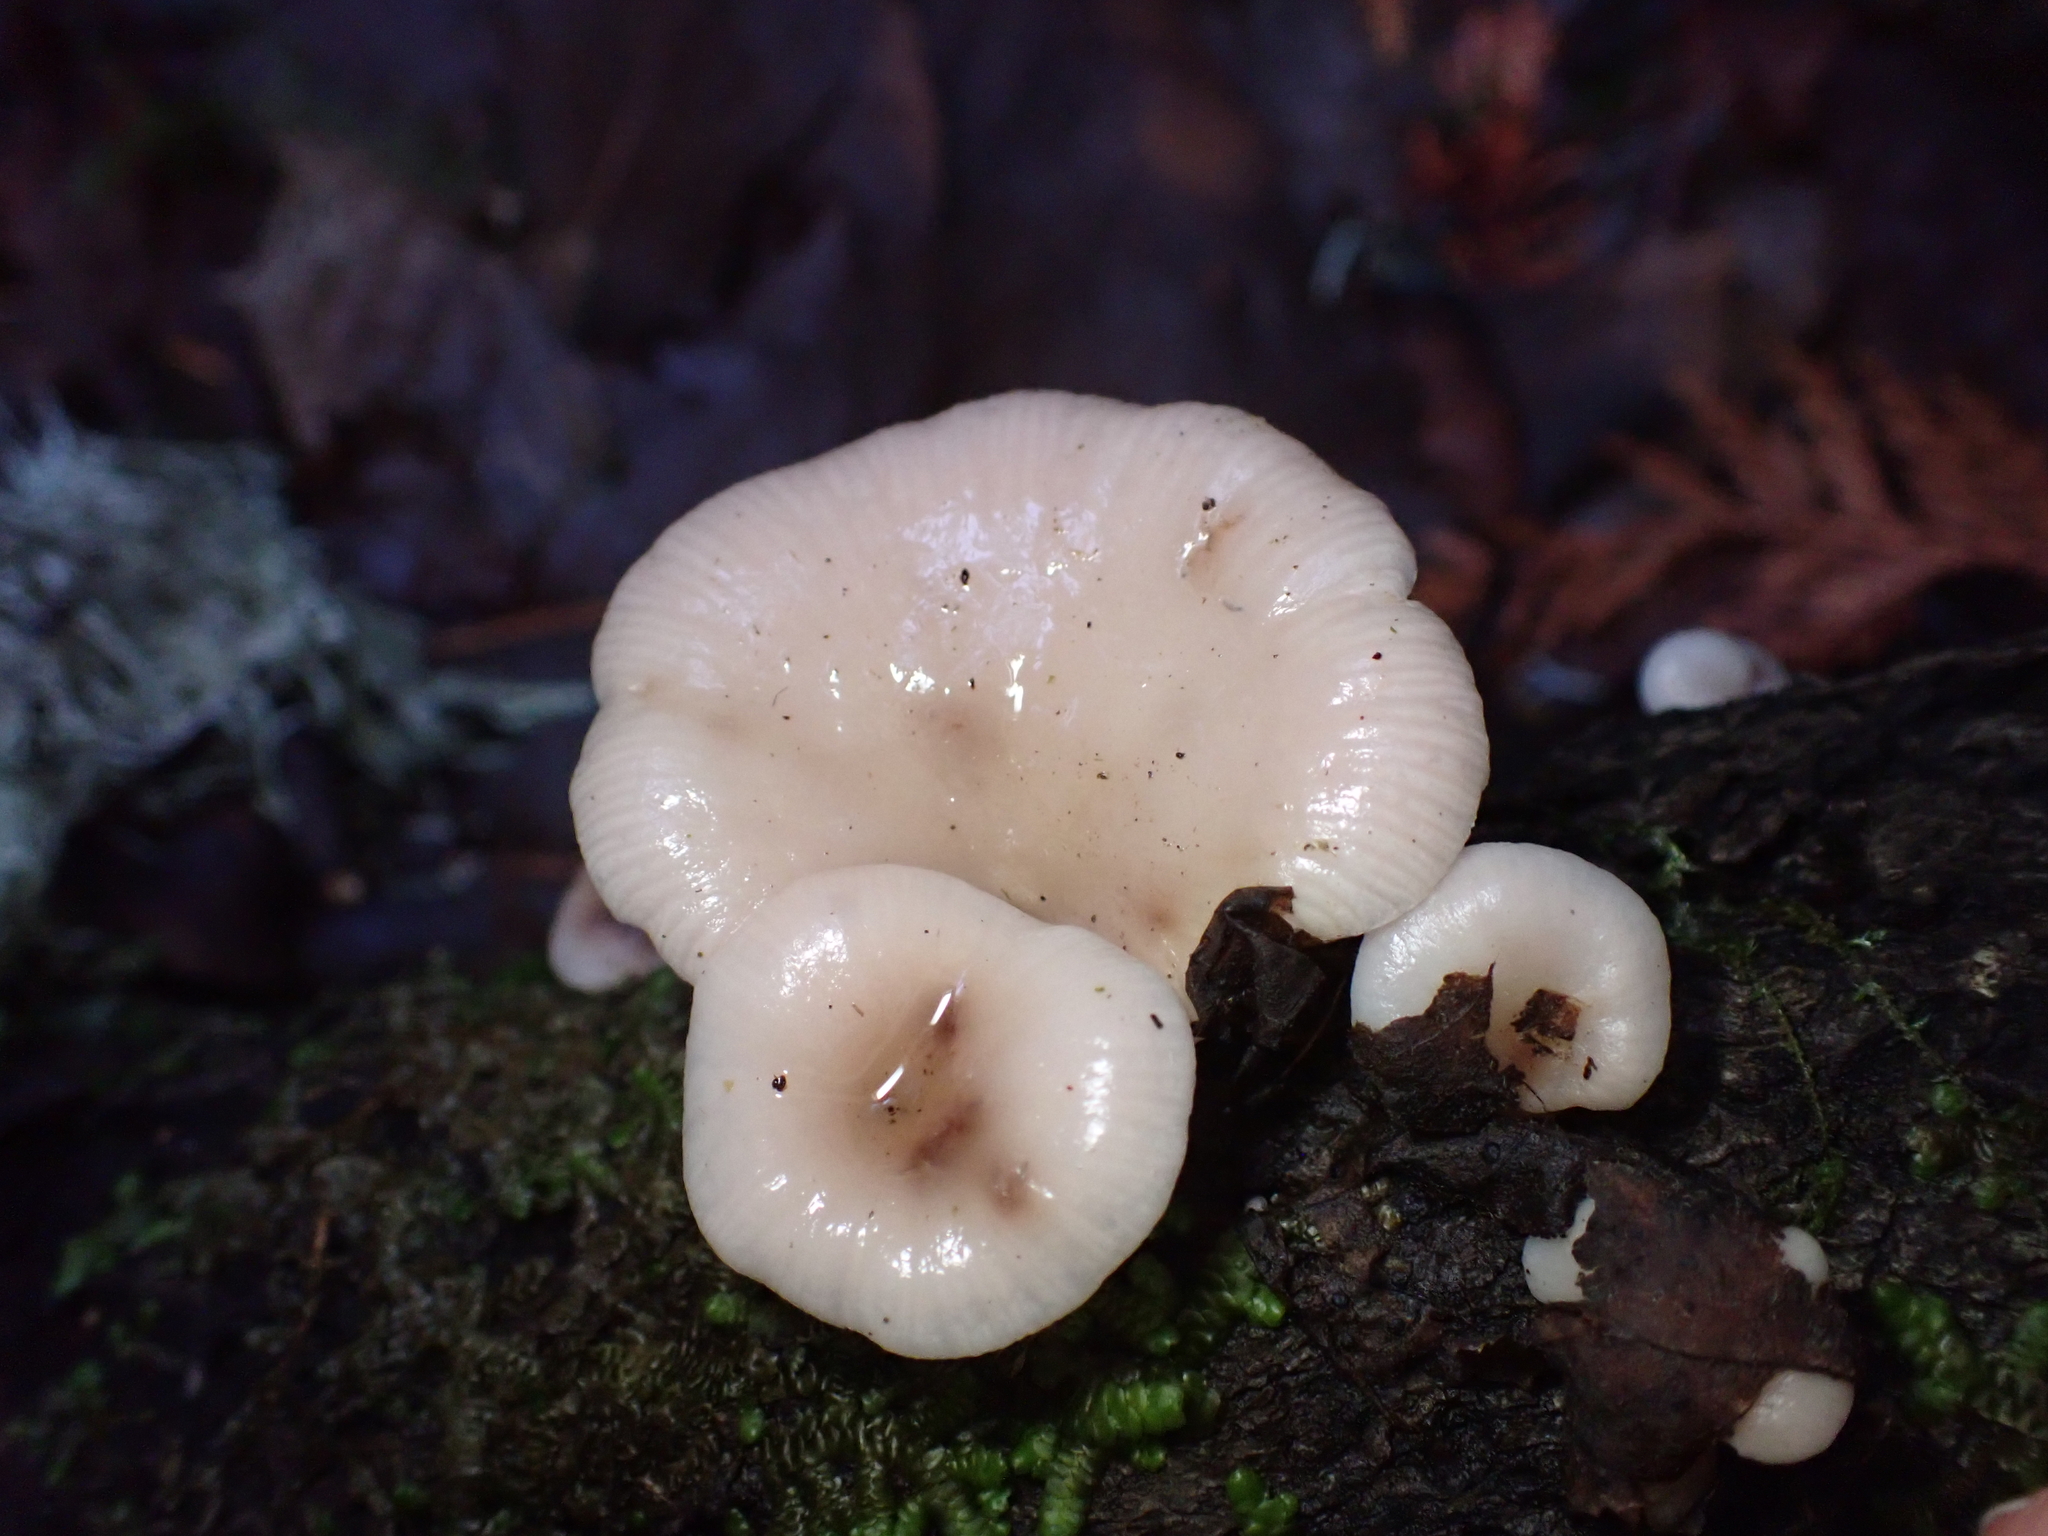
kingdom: Fungi
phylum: Basidiomycota
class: Agaricomycetes
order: Agaricales
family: Mycenaceae
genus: Panellus
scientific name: Panellus longinquus
